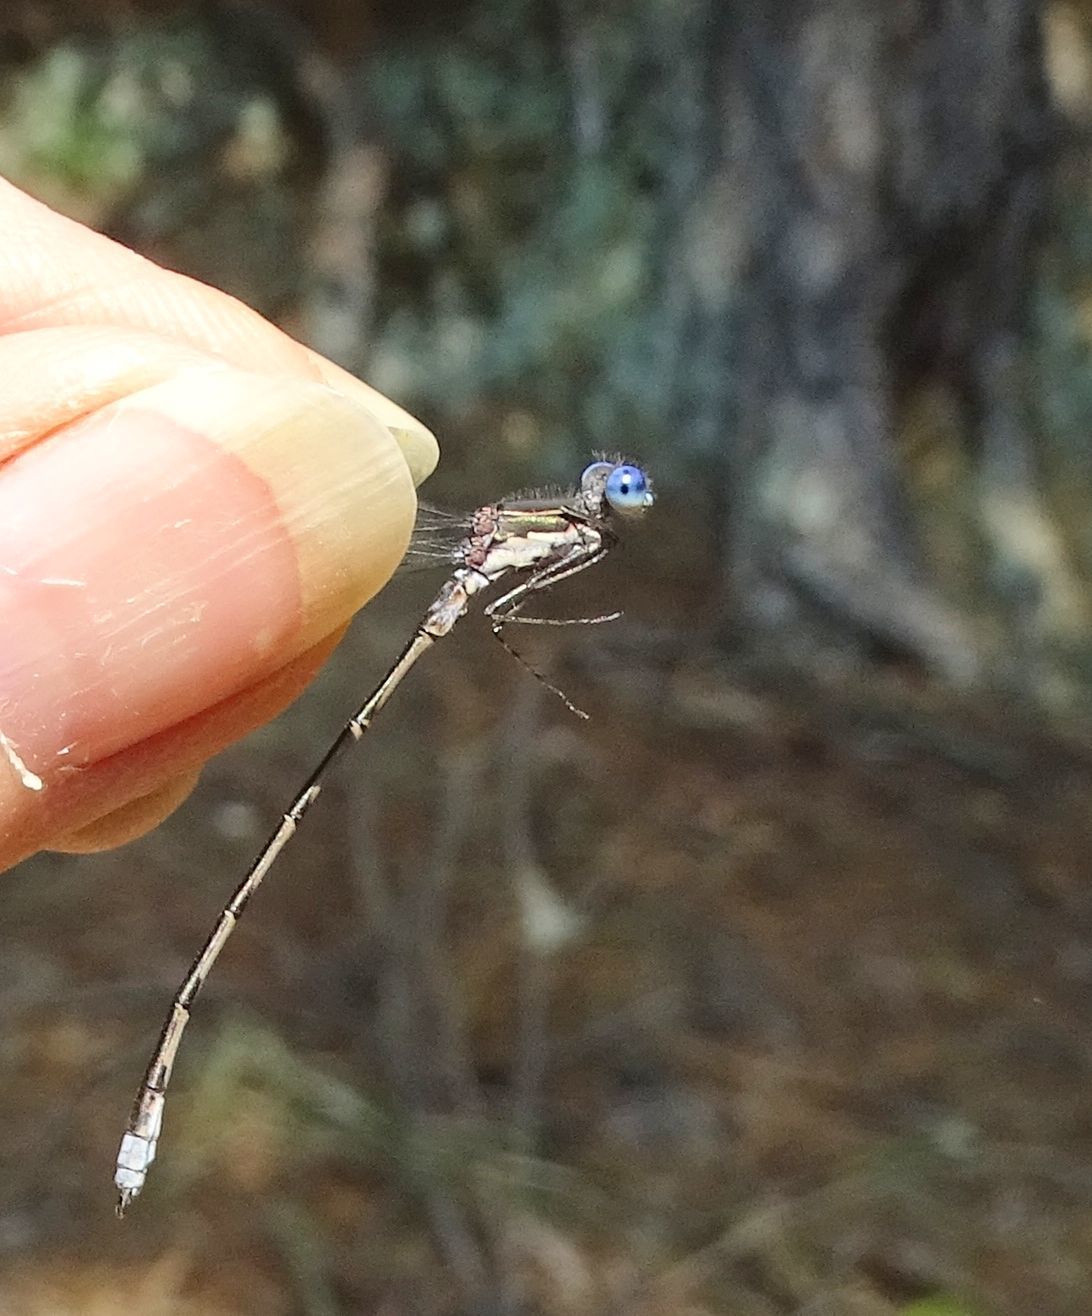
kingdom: Animalia
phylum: Arthropoda
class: Insecta
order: Odonata
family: Lestidae
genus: Lestes
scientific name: Lestes congener
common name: Spotted spreadwing
